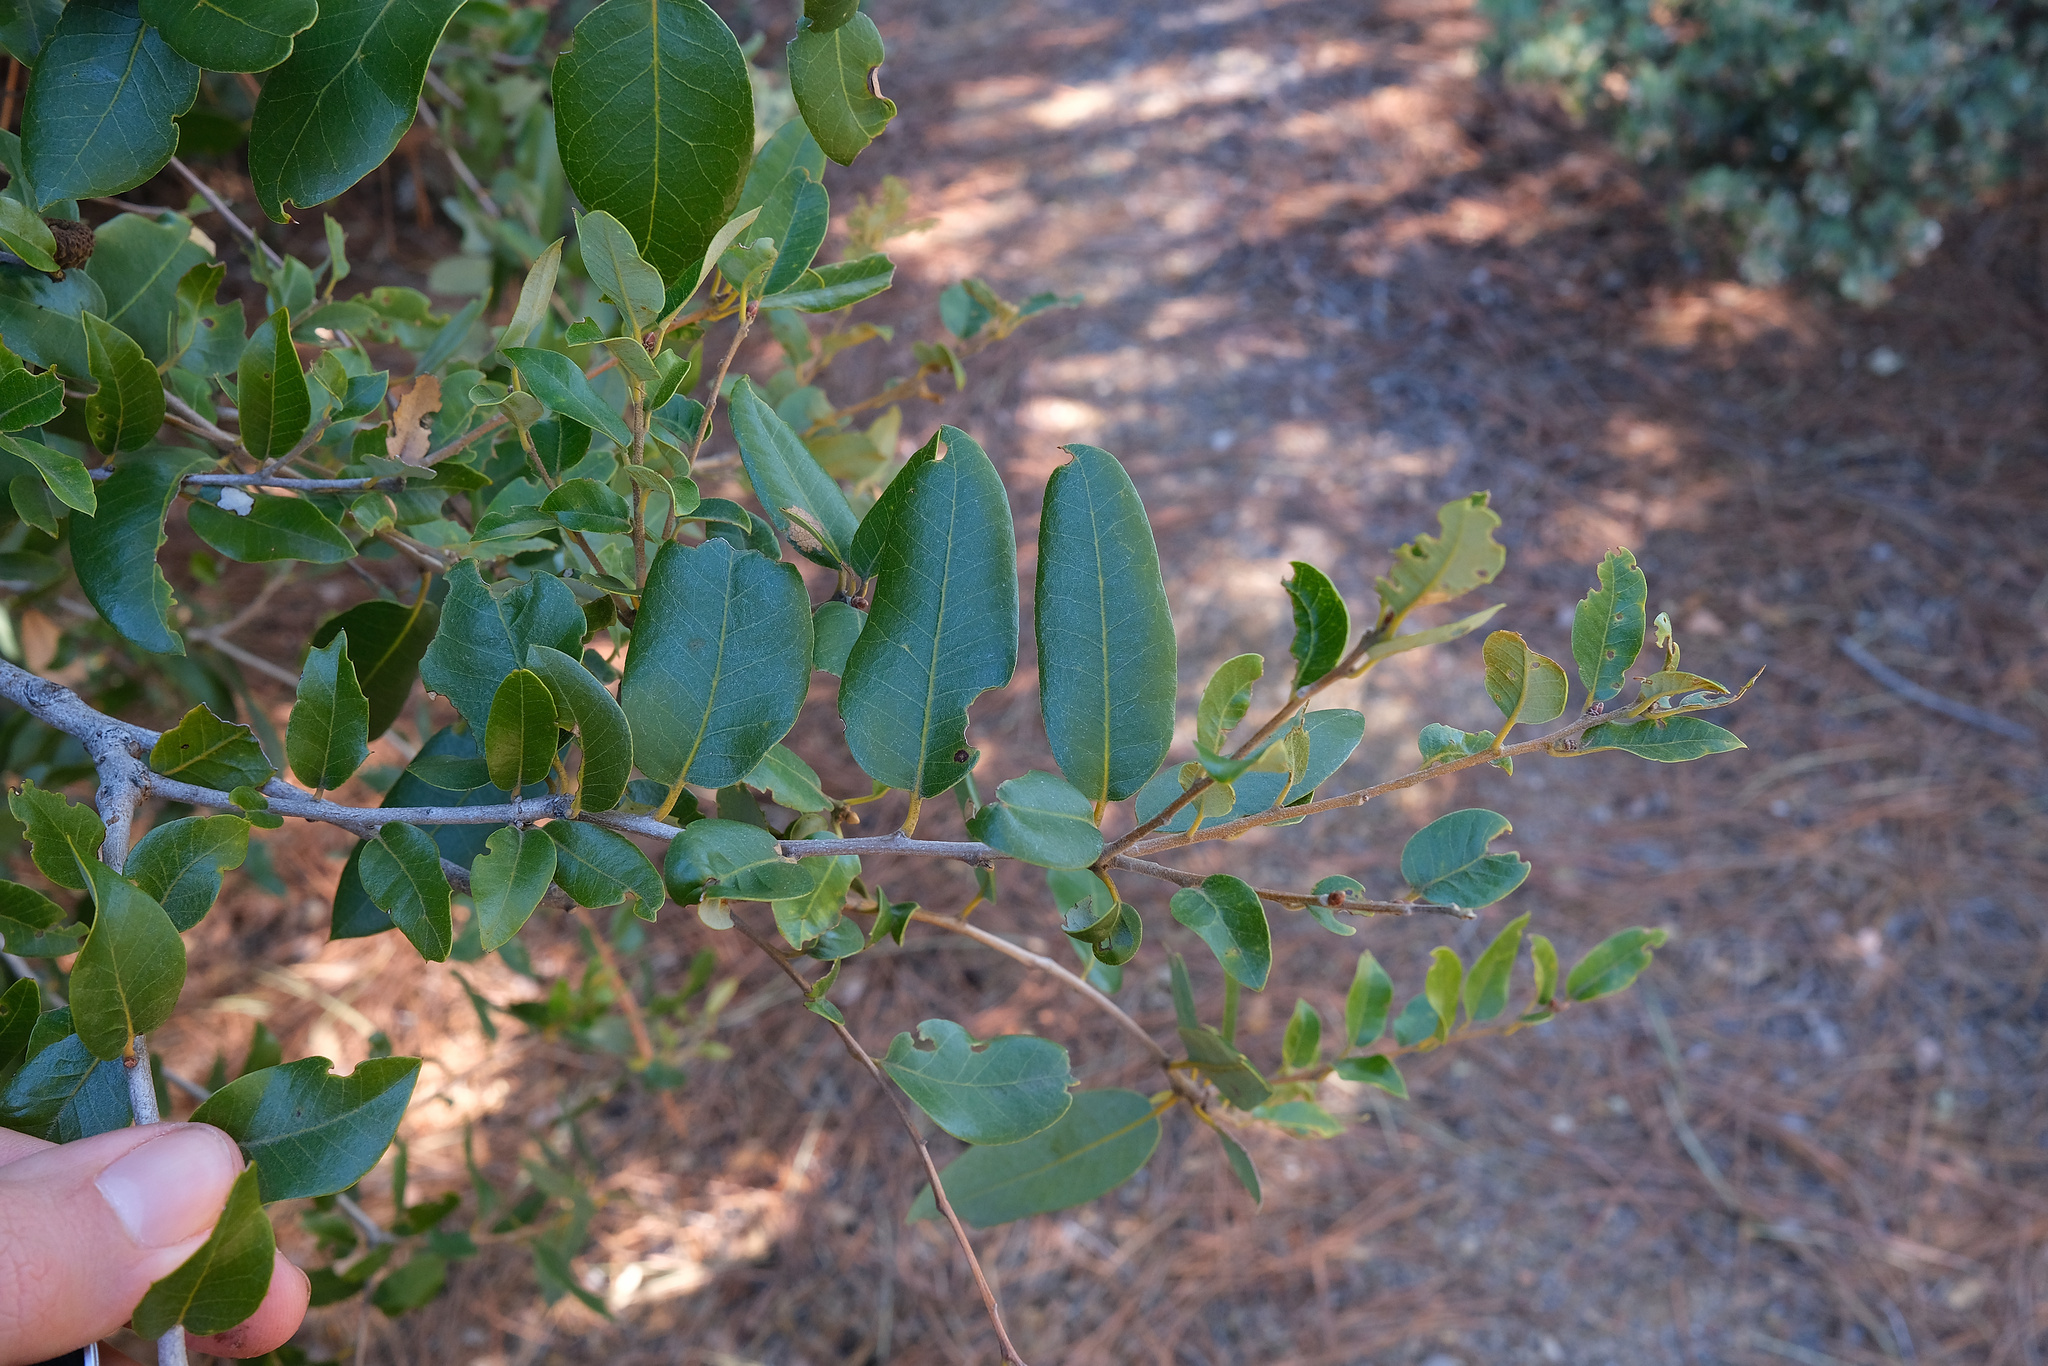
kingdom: Plantae
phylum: Tracheophyta
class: Magnoliopsida
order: Fagales
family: Fagaceae
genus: Quercus
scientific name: Quercus chrysolepis
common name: Canyon live oak
